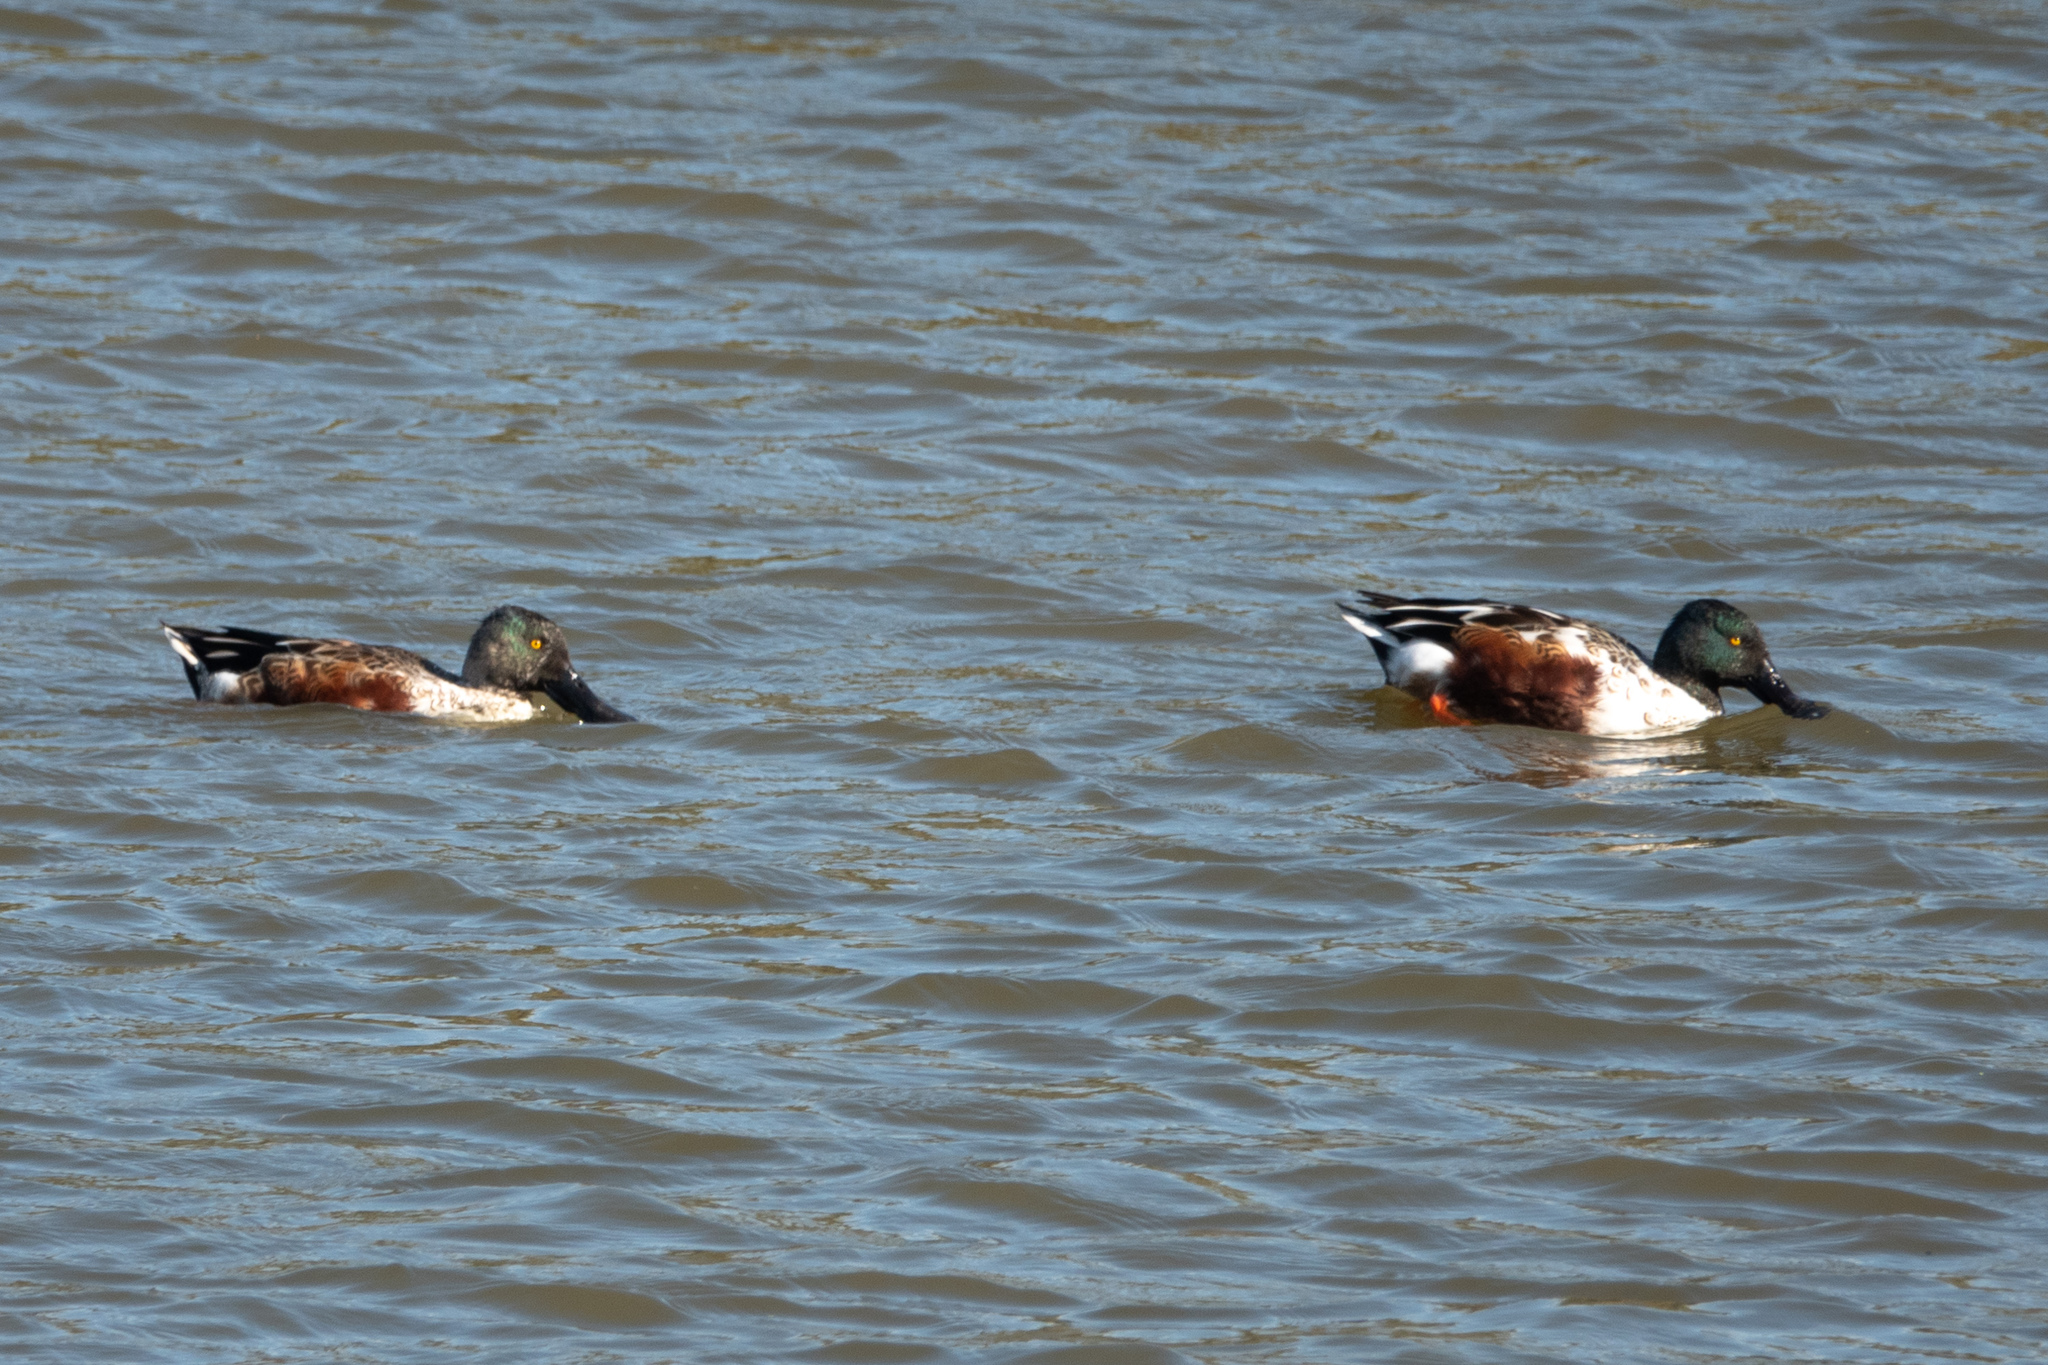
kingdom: Animalia
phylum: Chordata
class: Aves
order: Anseriformes
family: Anatidae
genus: Spatula
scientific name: Spatula clypeata
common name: Northern shoveler
